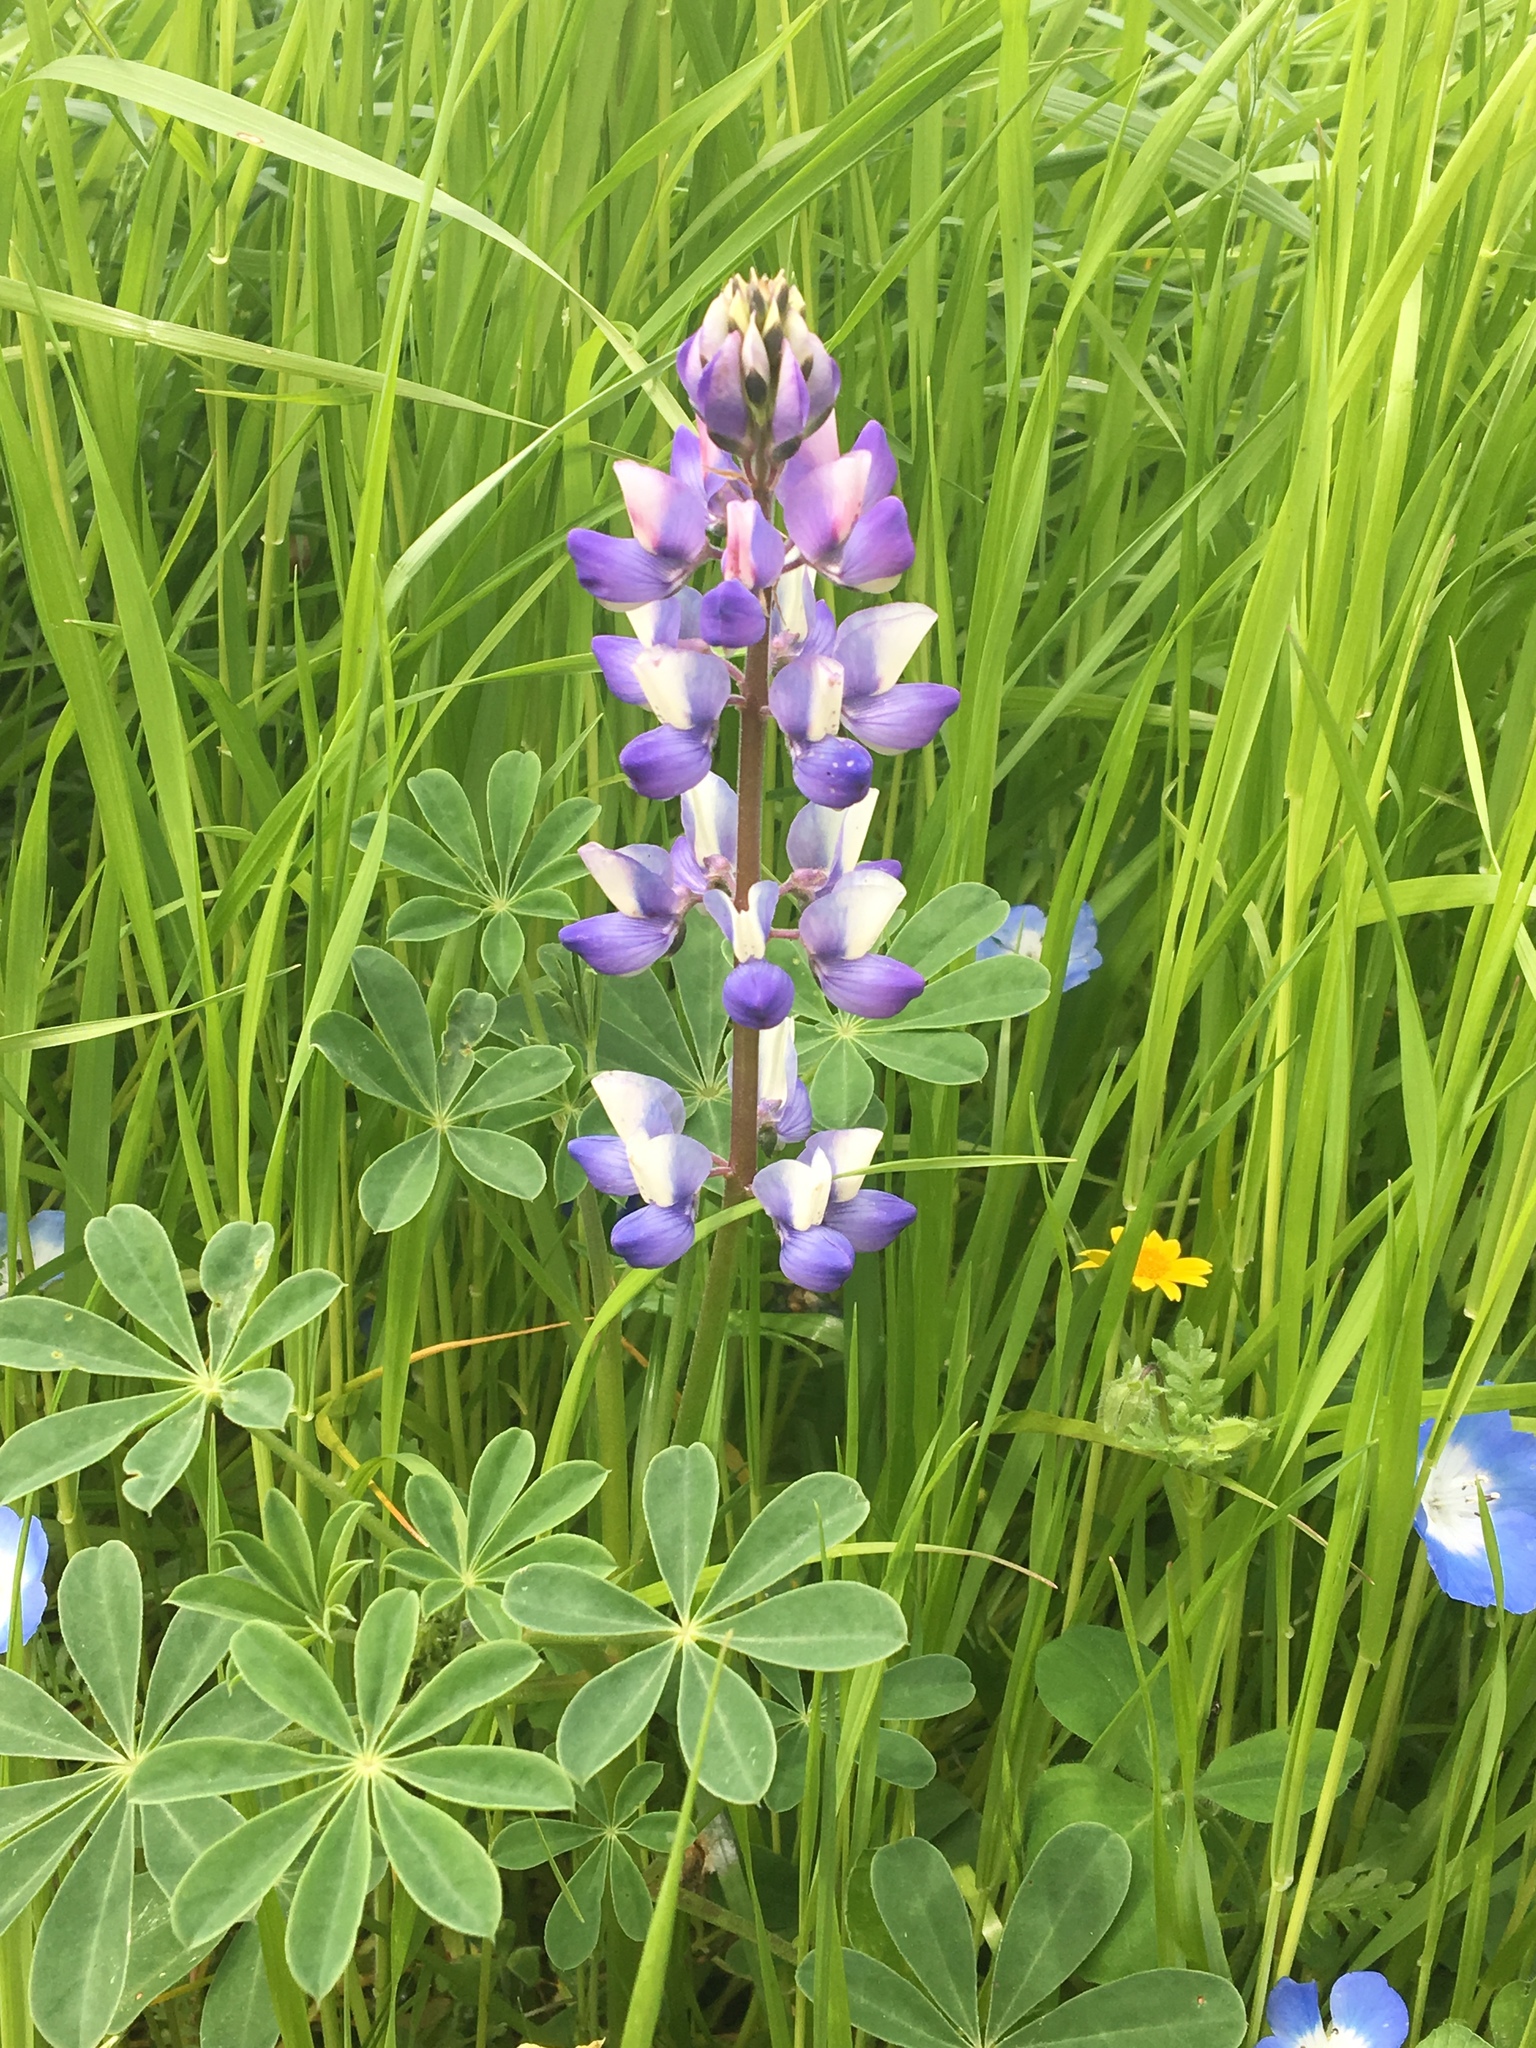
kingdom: Plantae
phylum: Tracheophyta
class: Magnoliopsida
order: Fabales
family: Fabaceae
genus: Lupinus
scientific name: Lupinus succulentus
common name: Arroyo lupine
